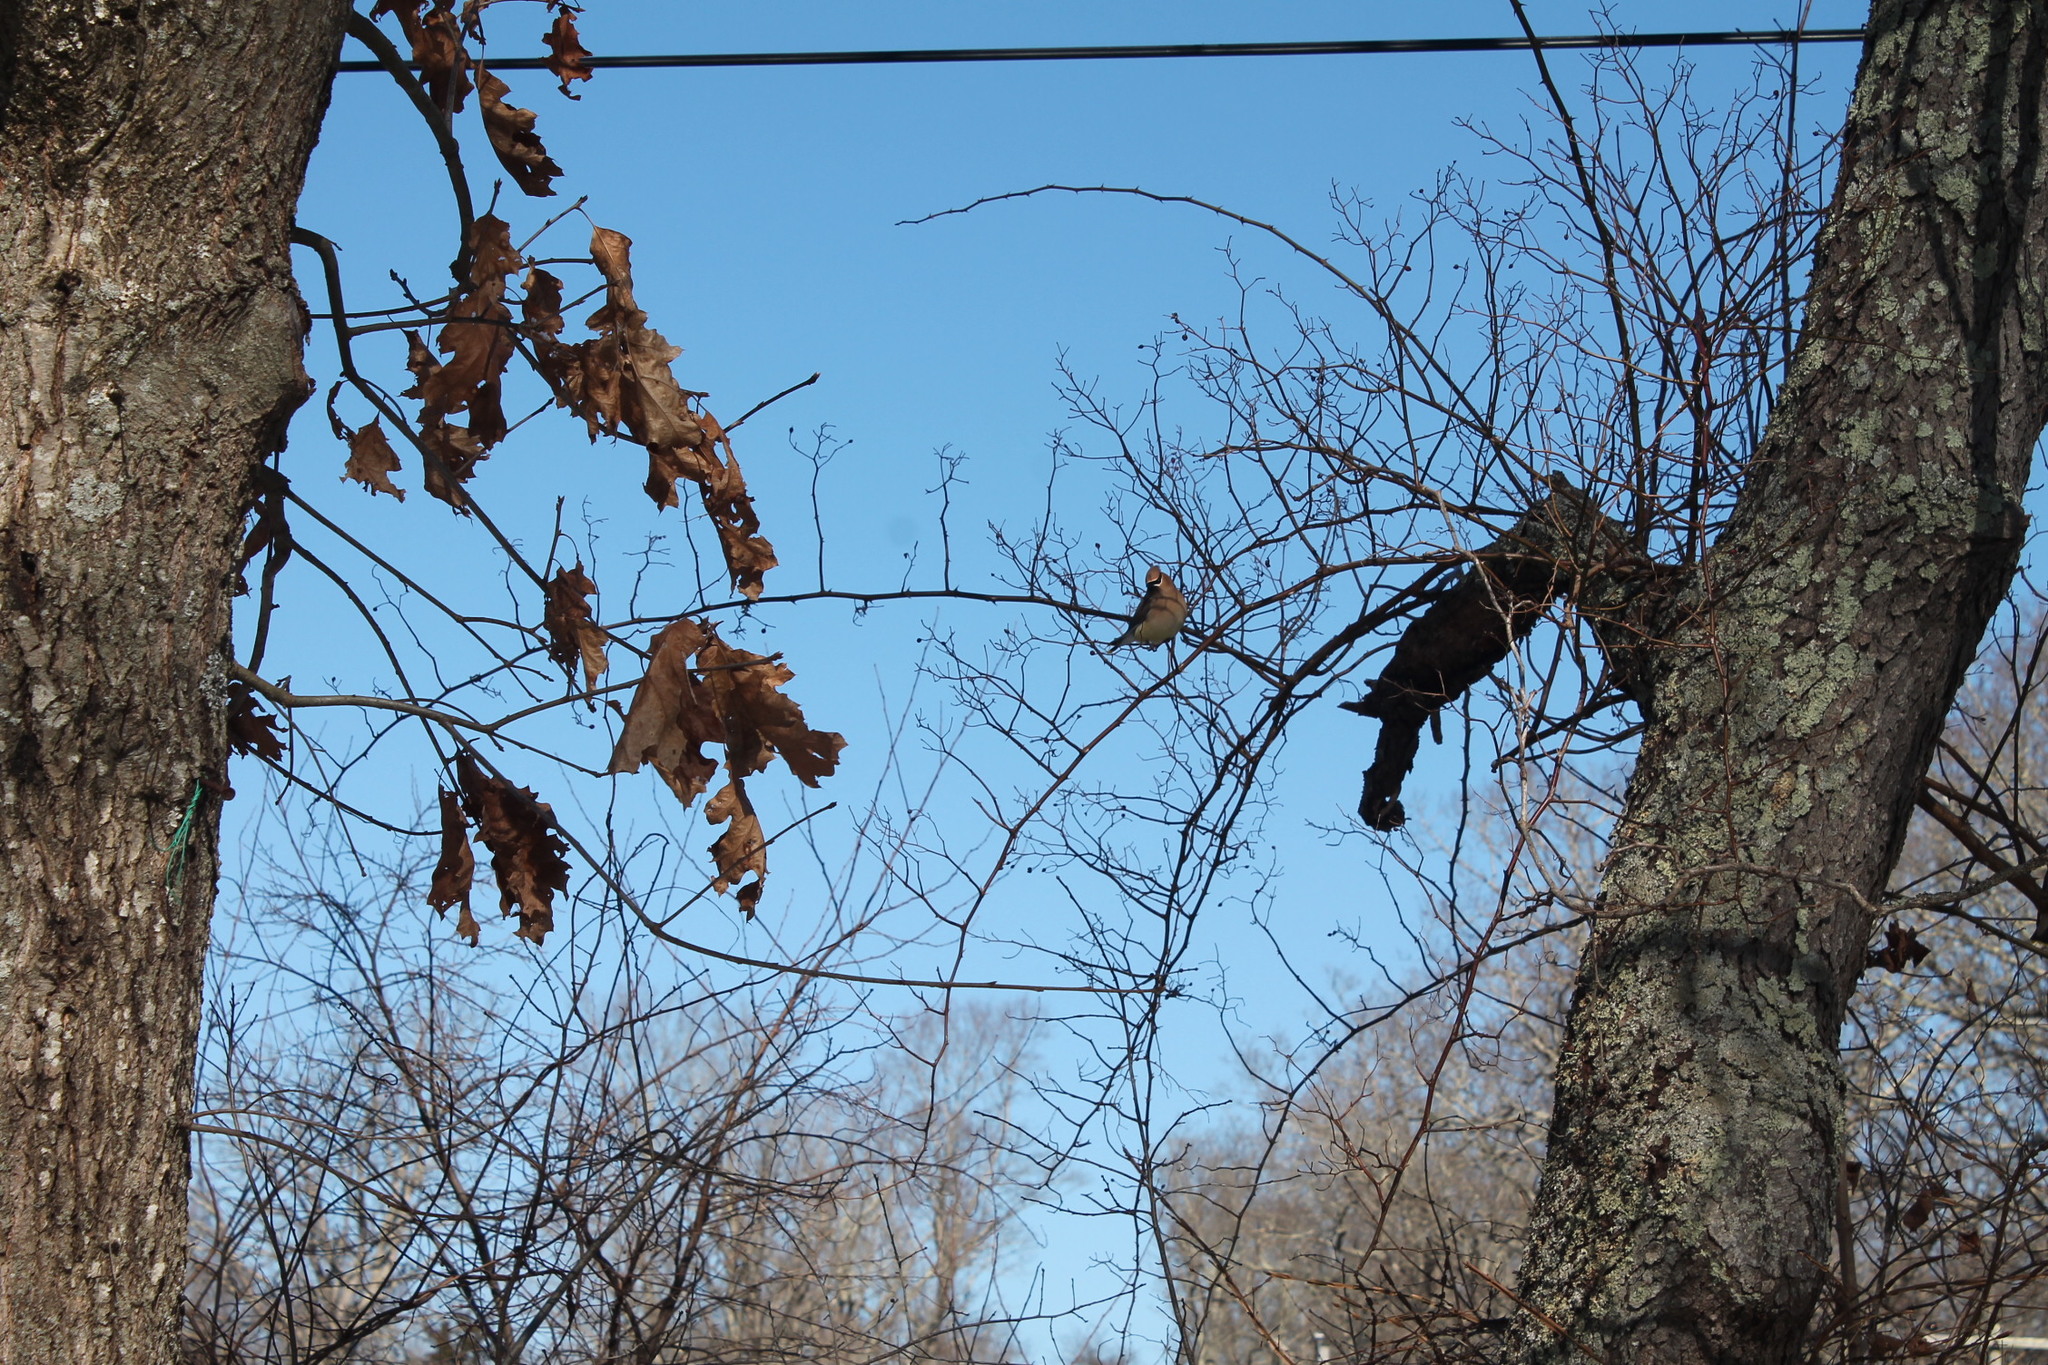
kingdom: Animalia
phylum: Chordata
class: Aves
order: Passeriformes
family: Bombycillidae
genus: Bombycilla
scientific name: Bombycilla cedrorum
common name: Cedar waxwing
